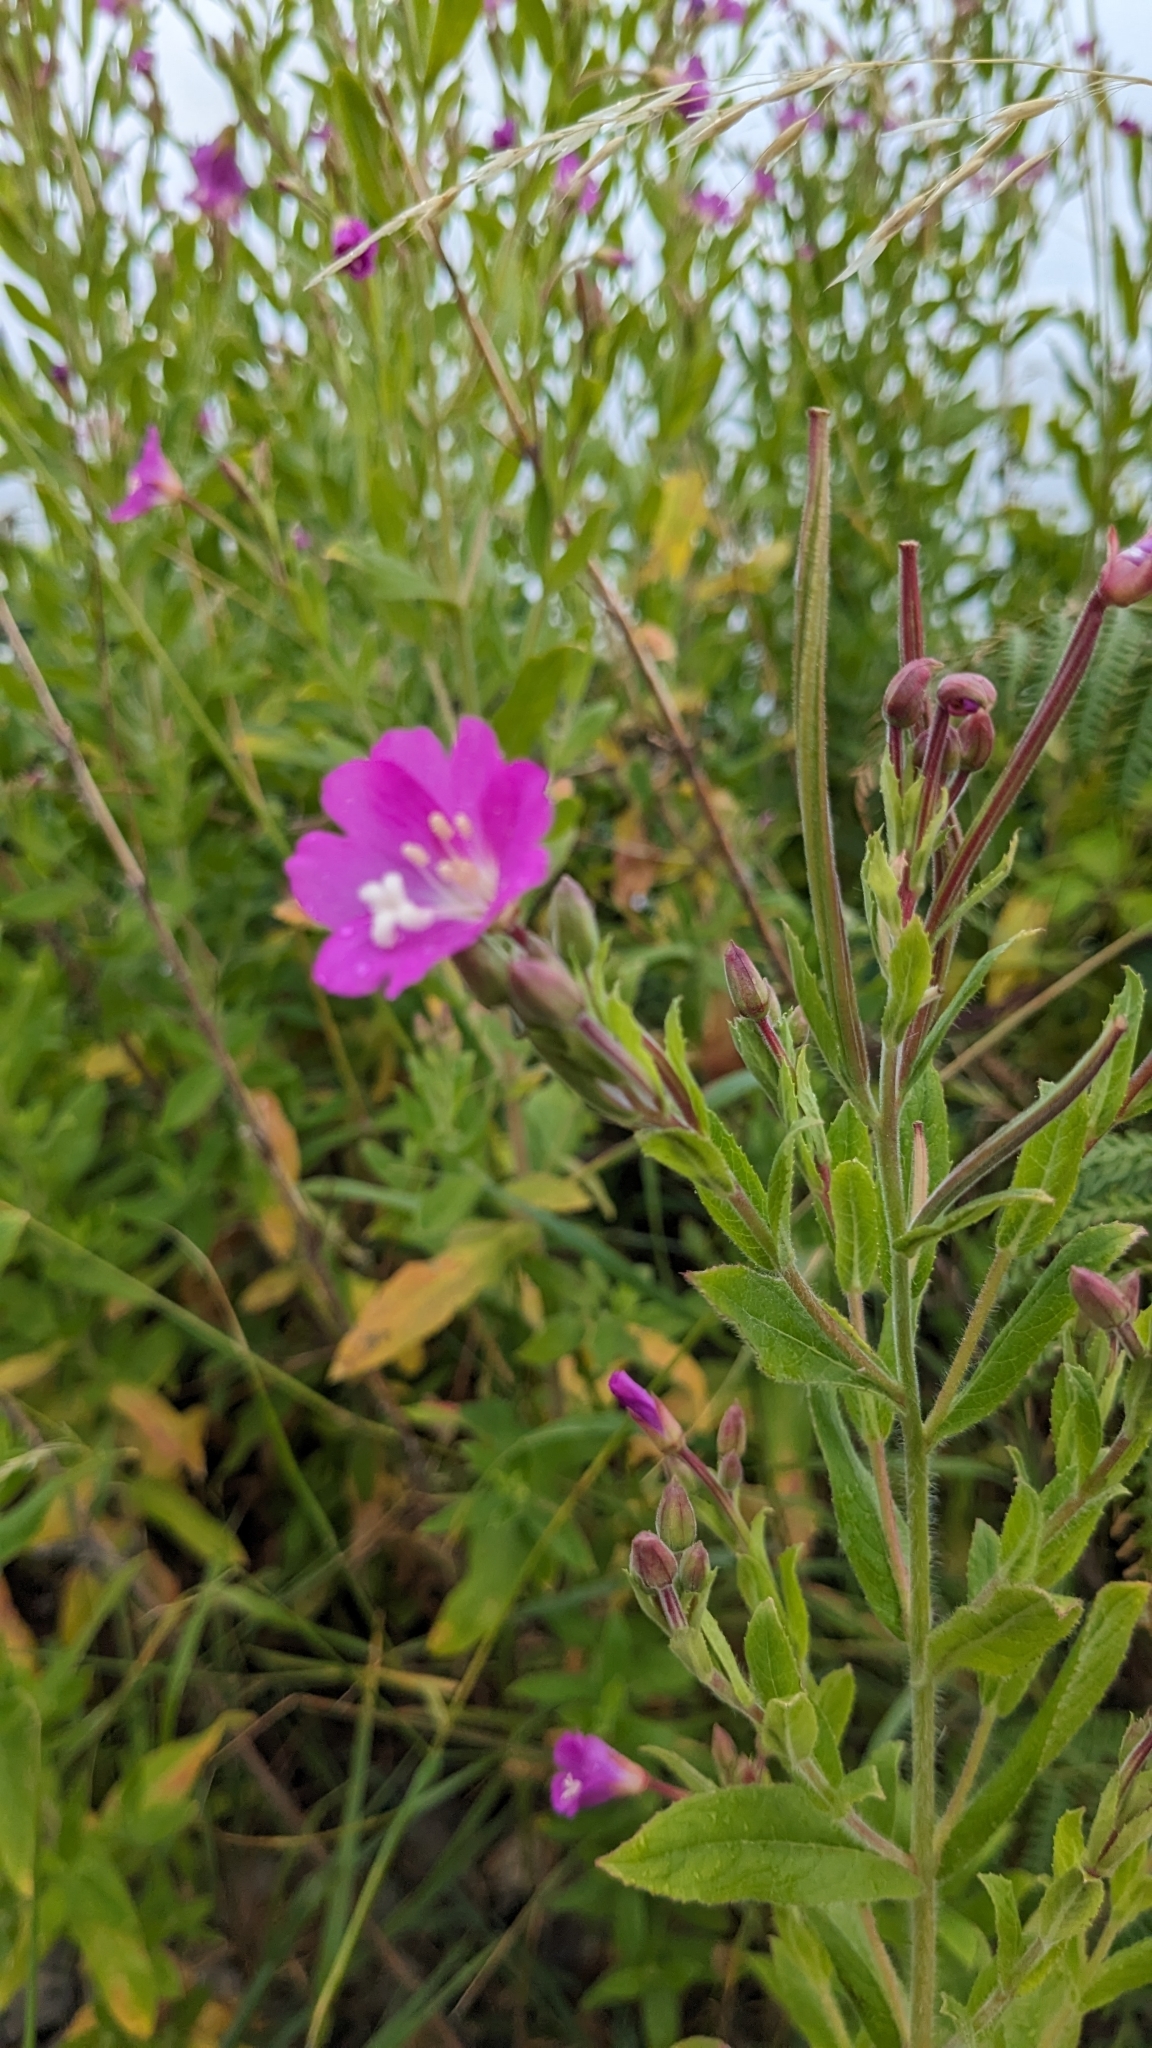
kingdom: Plantae
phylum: Tracheophyta
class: Magnoliopsida
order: Myrtales
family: Onagraceae
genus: Epilobium
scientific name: Epilobium hirsutum
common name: Great willowherb
